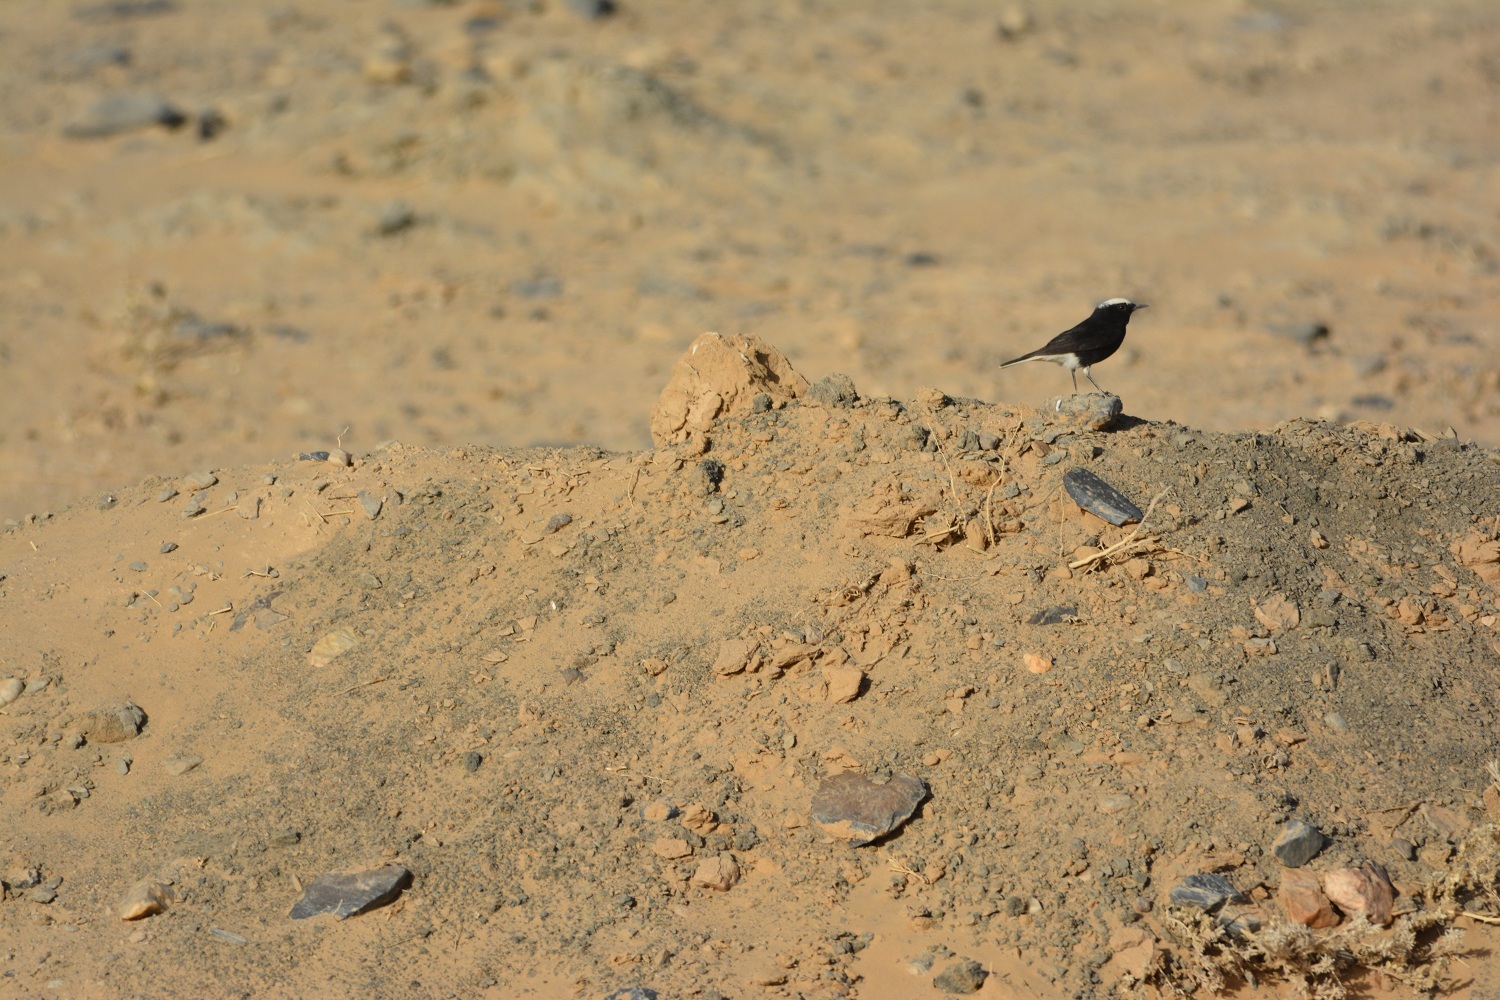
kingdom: Animalia
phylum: Chordata
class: Aves
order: Passeriformes
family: Muscicapidae
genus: Oenanthe
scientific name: Oenanthe leucopyga
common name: White-crowned wheatear
